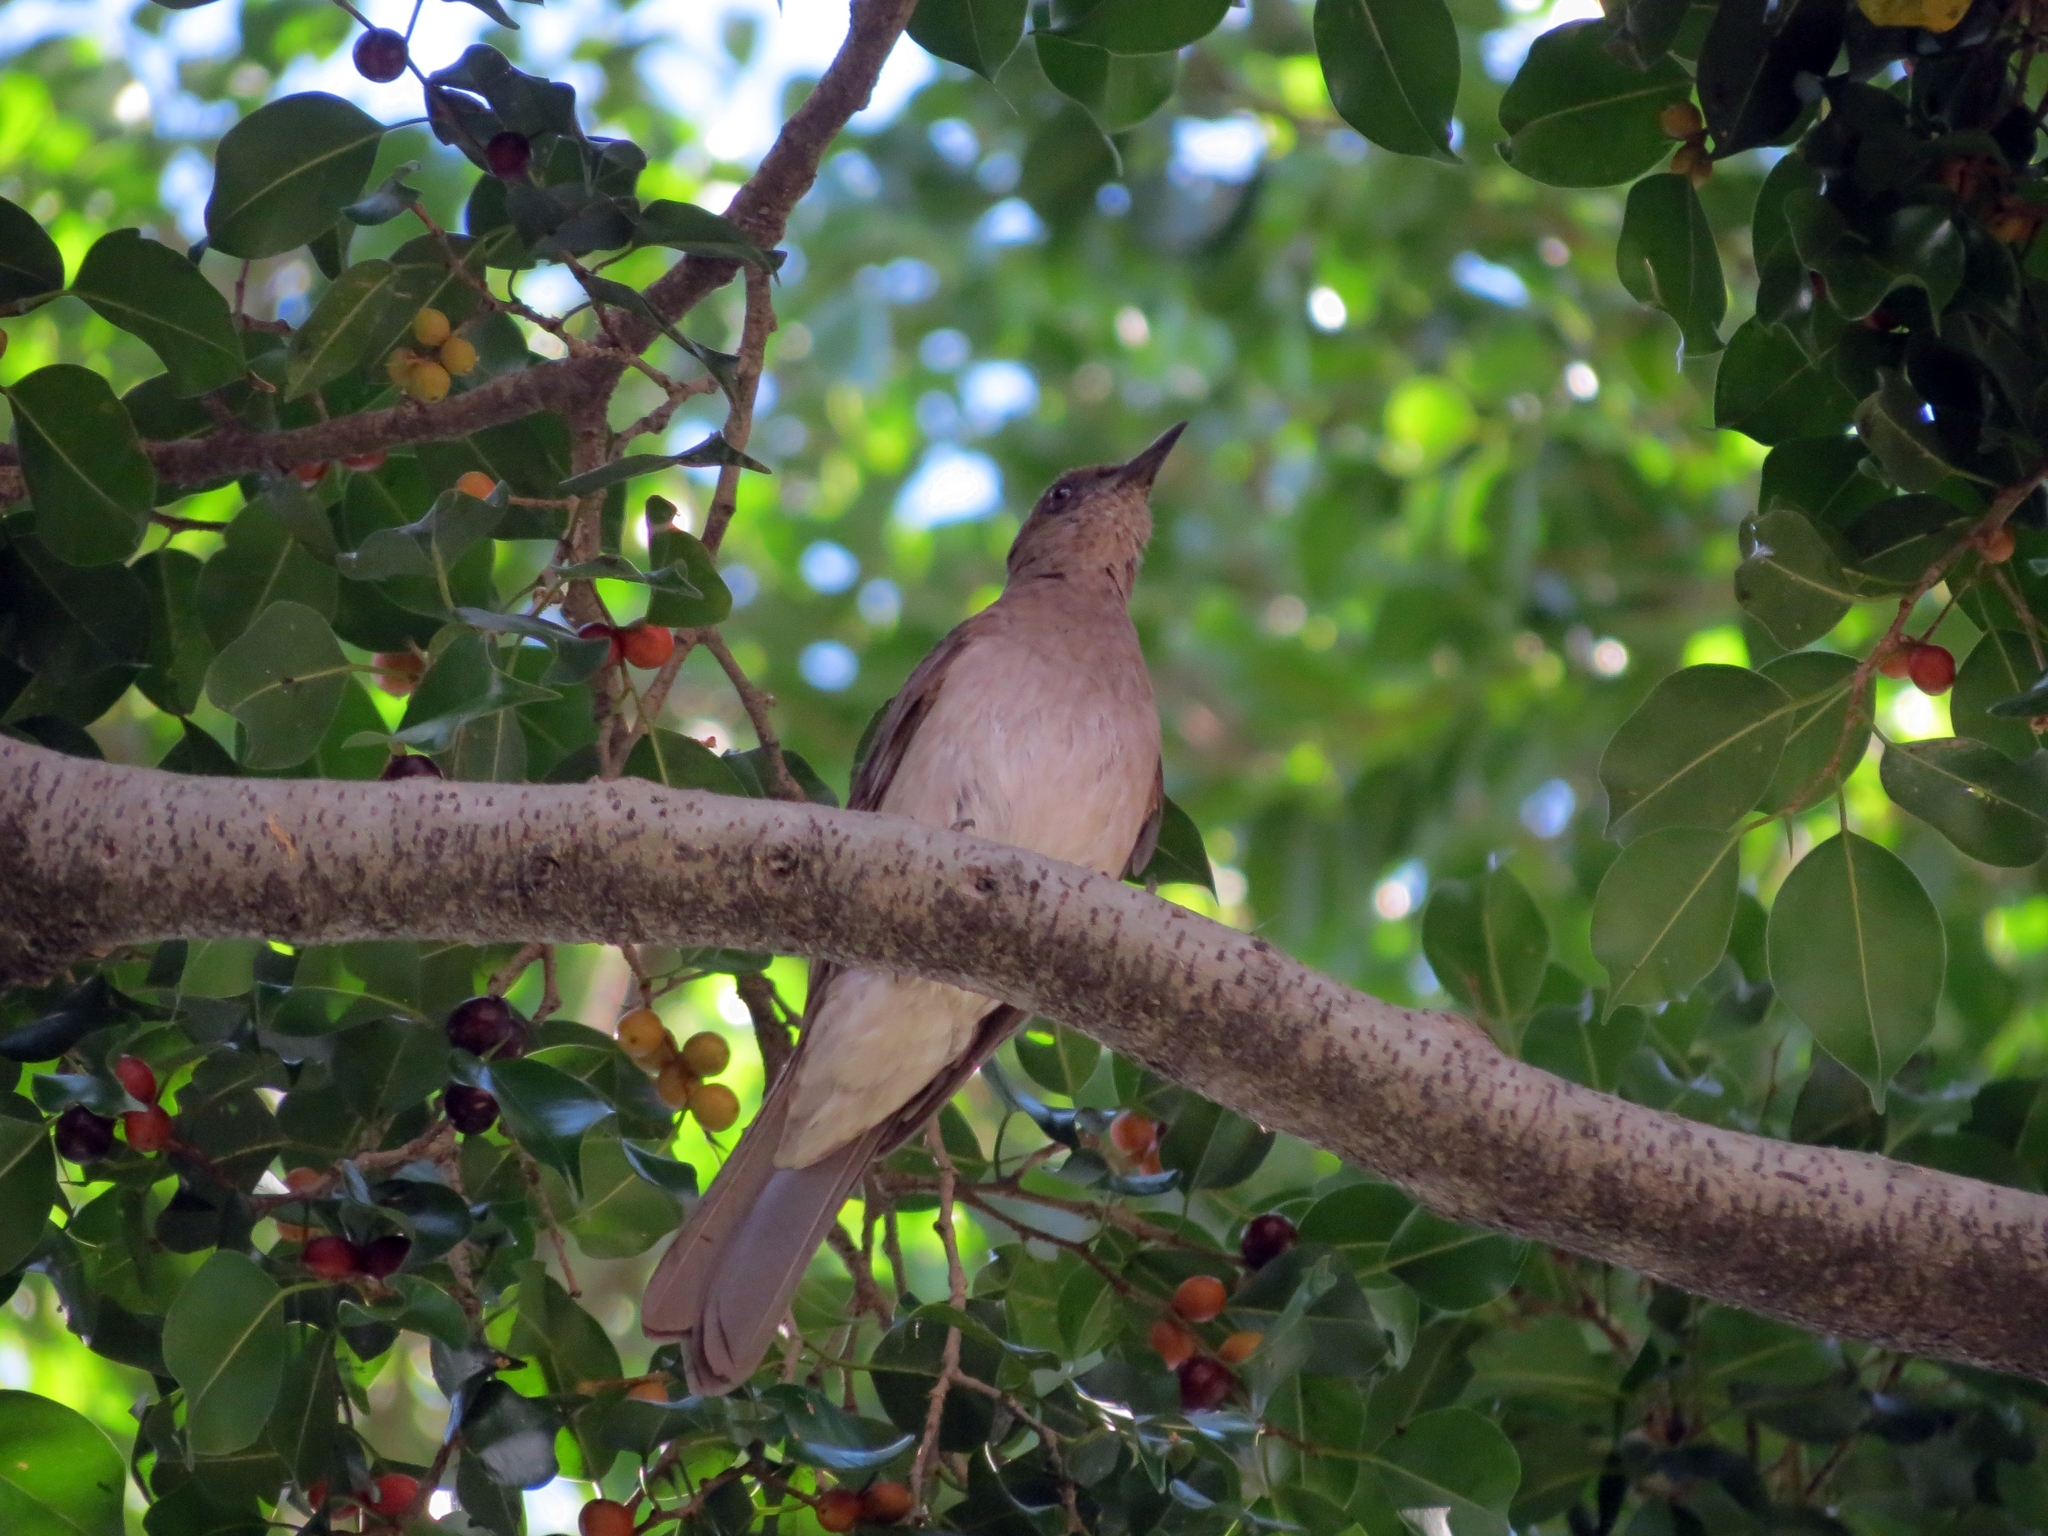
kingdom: Animalia
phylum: Chordata
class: Aves
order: Passeriformes
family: Turdidae
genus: Turdus
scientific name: Turdus ignobilis
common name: Black-billed thrush
